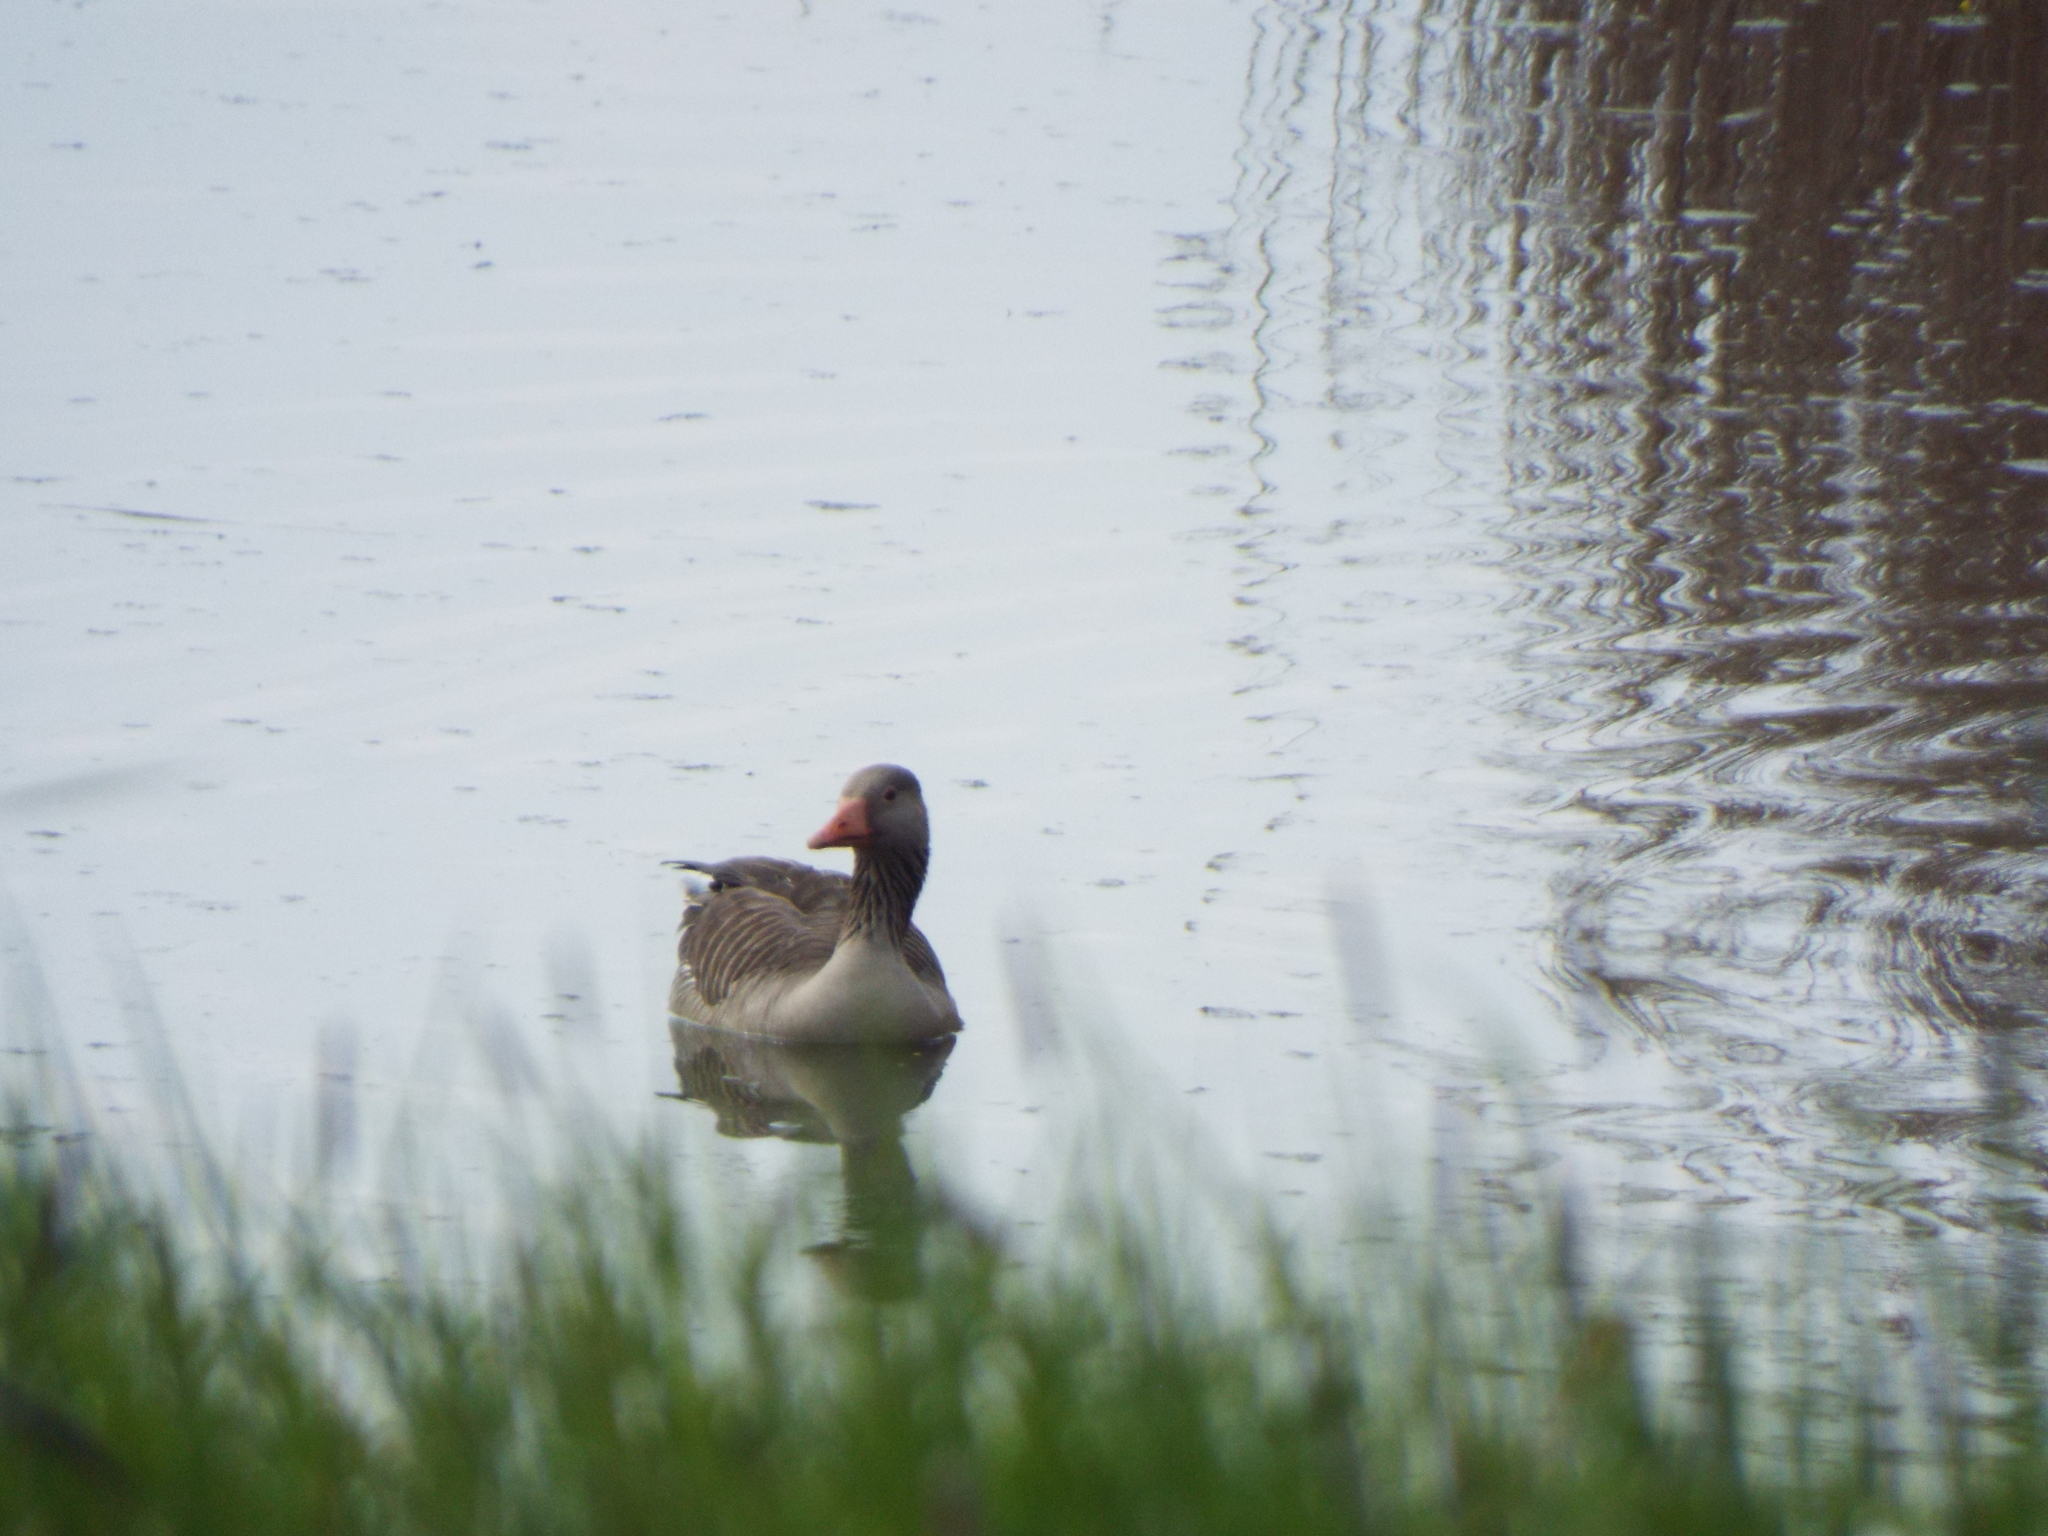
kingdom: Animalia
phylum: Chordata
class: Aves
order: Anseriformes
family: Anatidae
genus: Anser
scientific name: Anser anser
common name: Greylag goose
